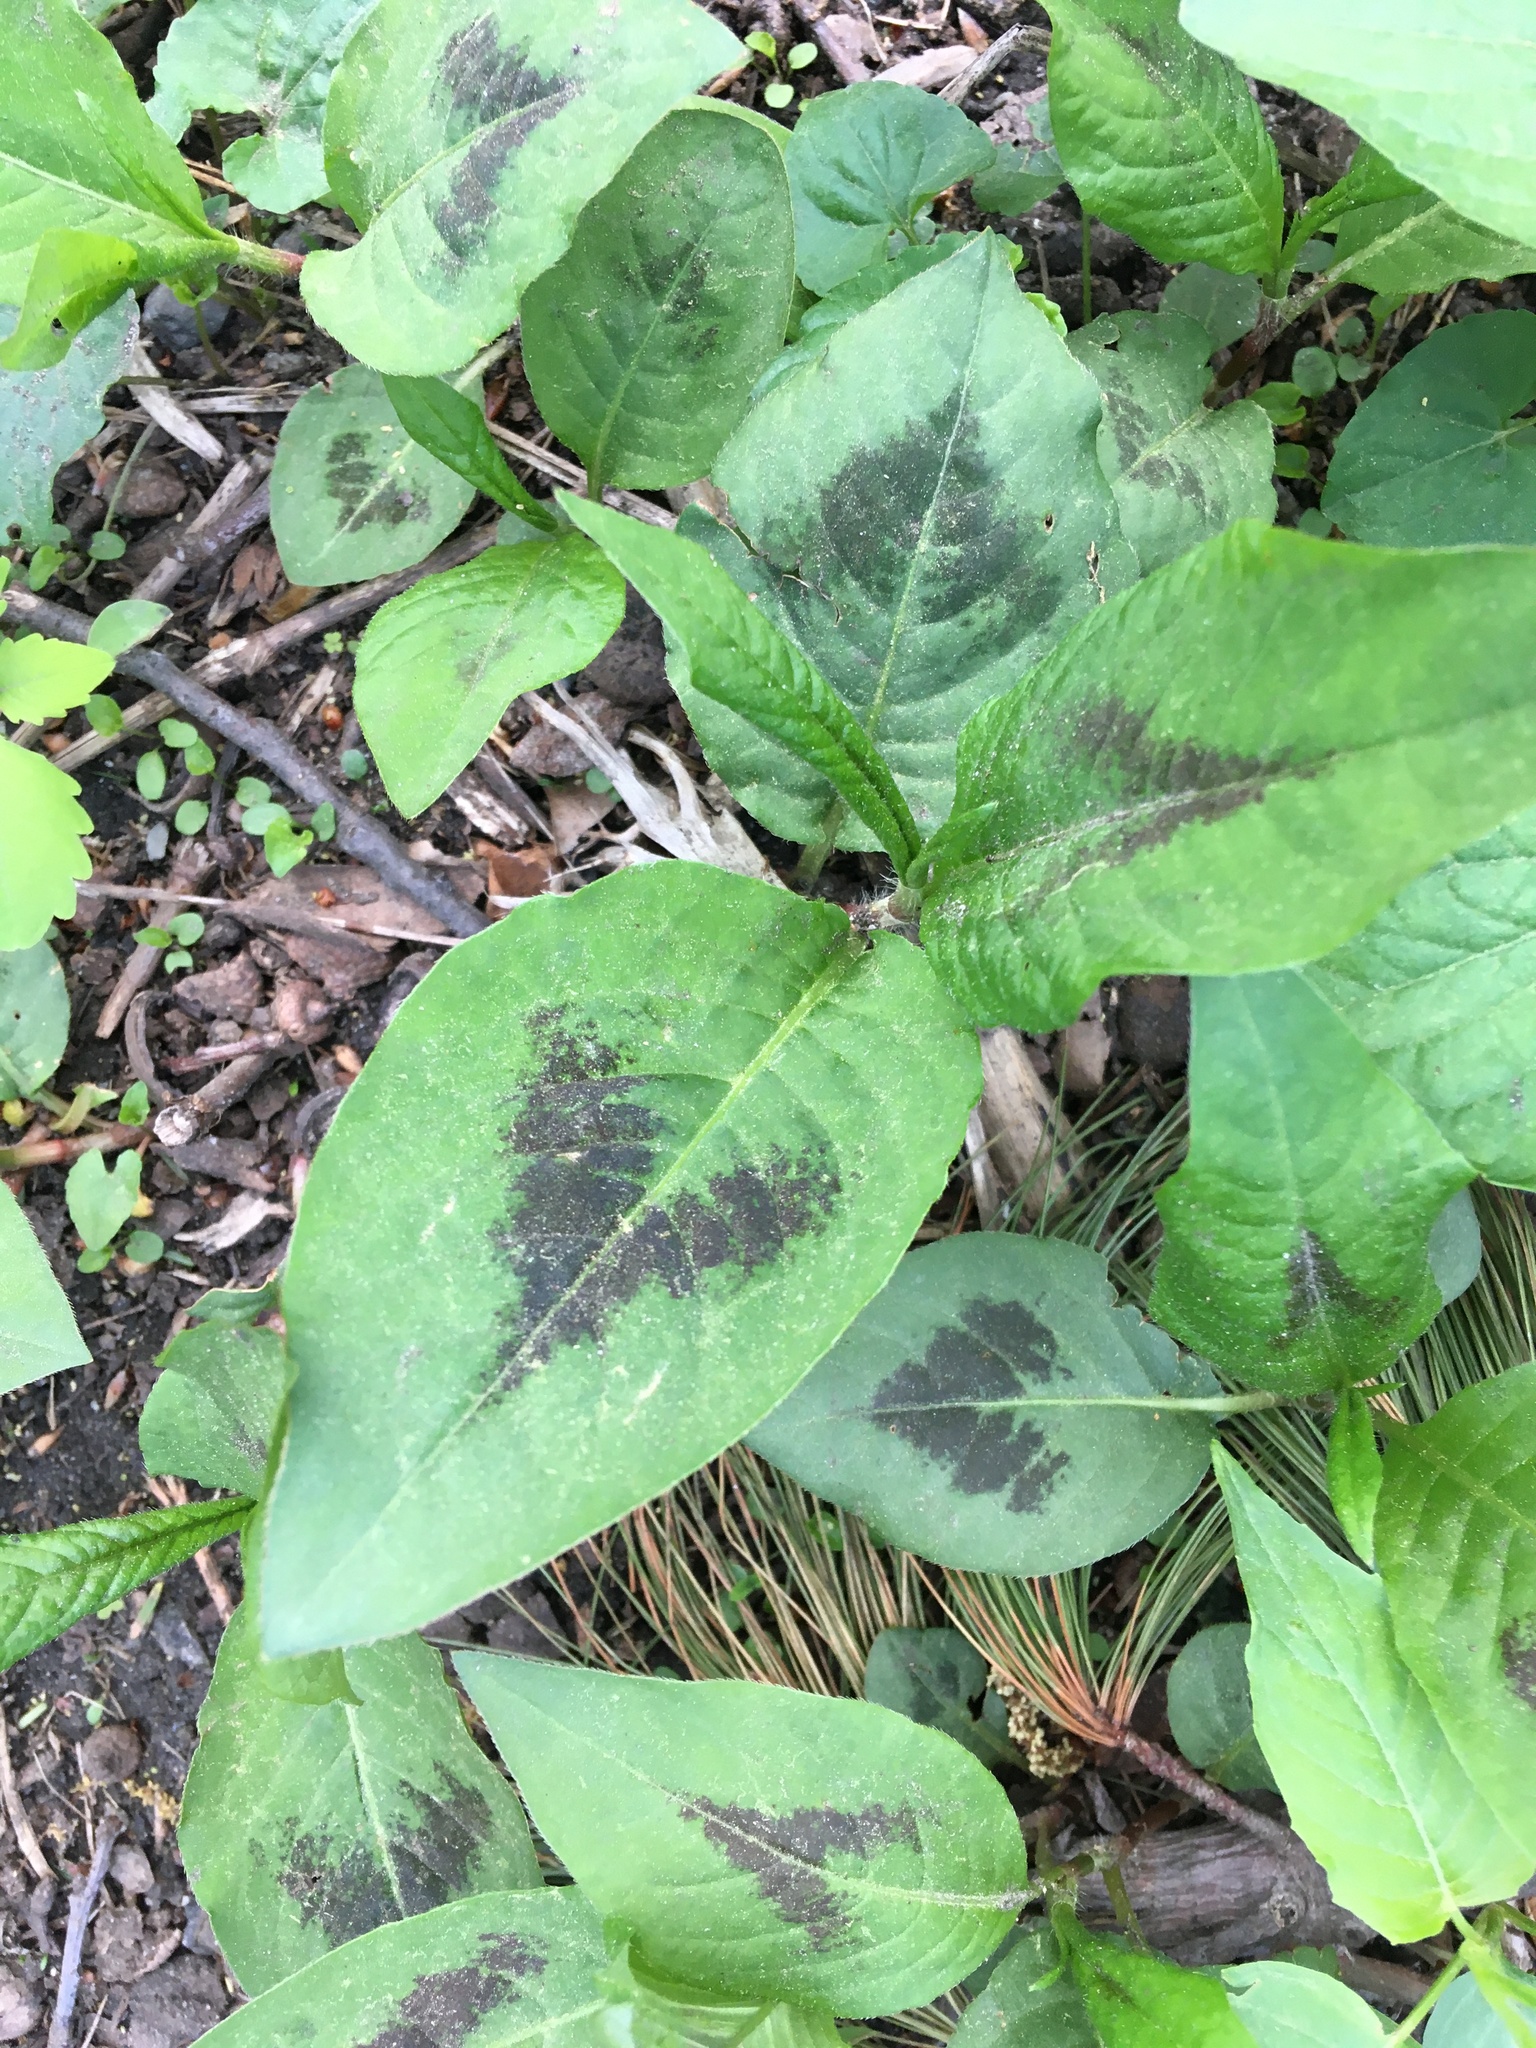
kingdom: Plantae
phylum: Tracheophyta
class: Magnoliopsida
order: Caryophyllales
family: Polygonaceae
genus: Persicaria
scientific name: Persicaria virginiana
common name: Jumpseed
